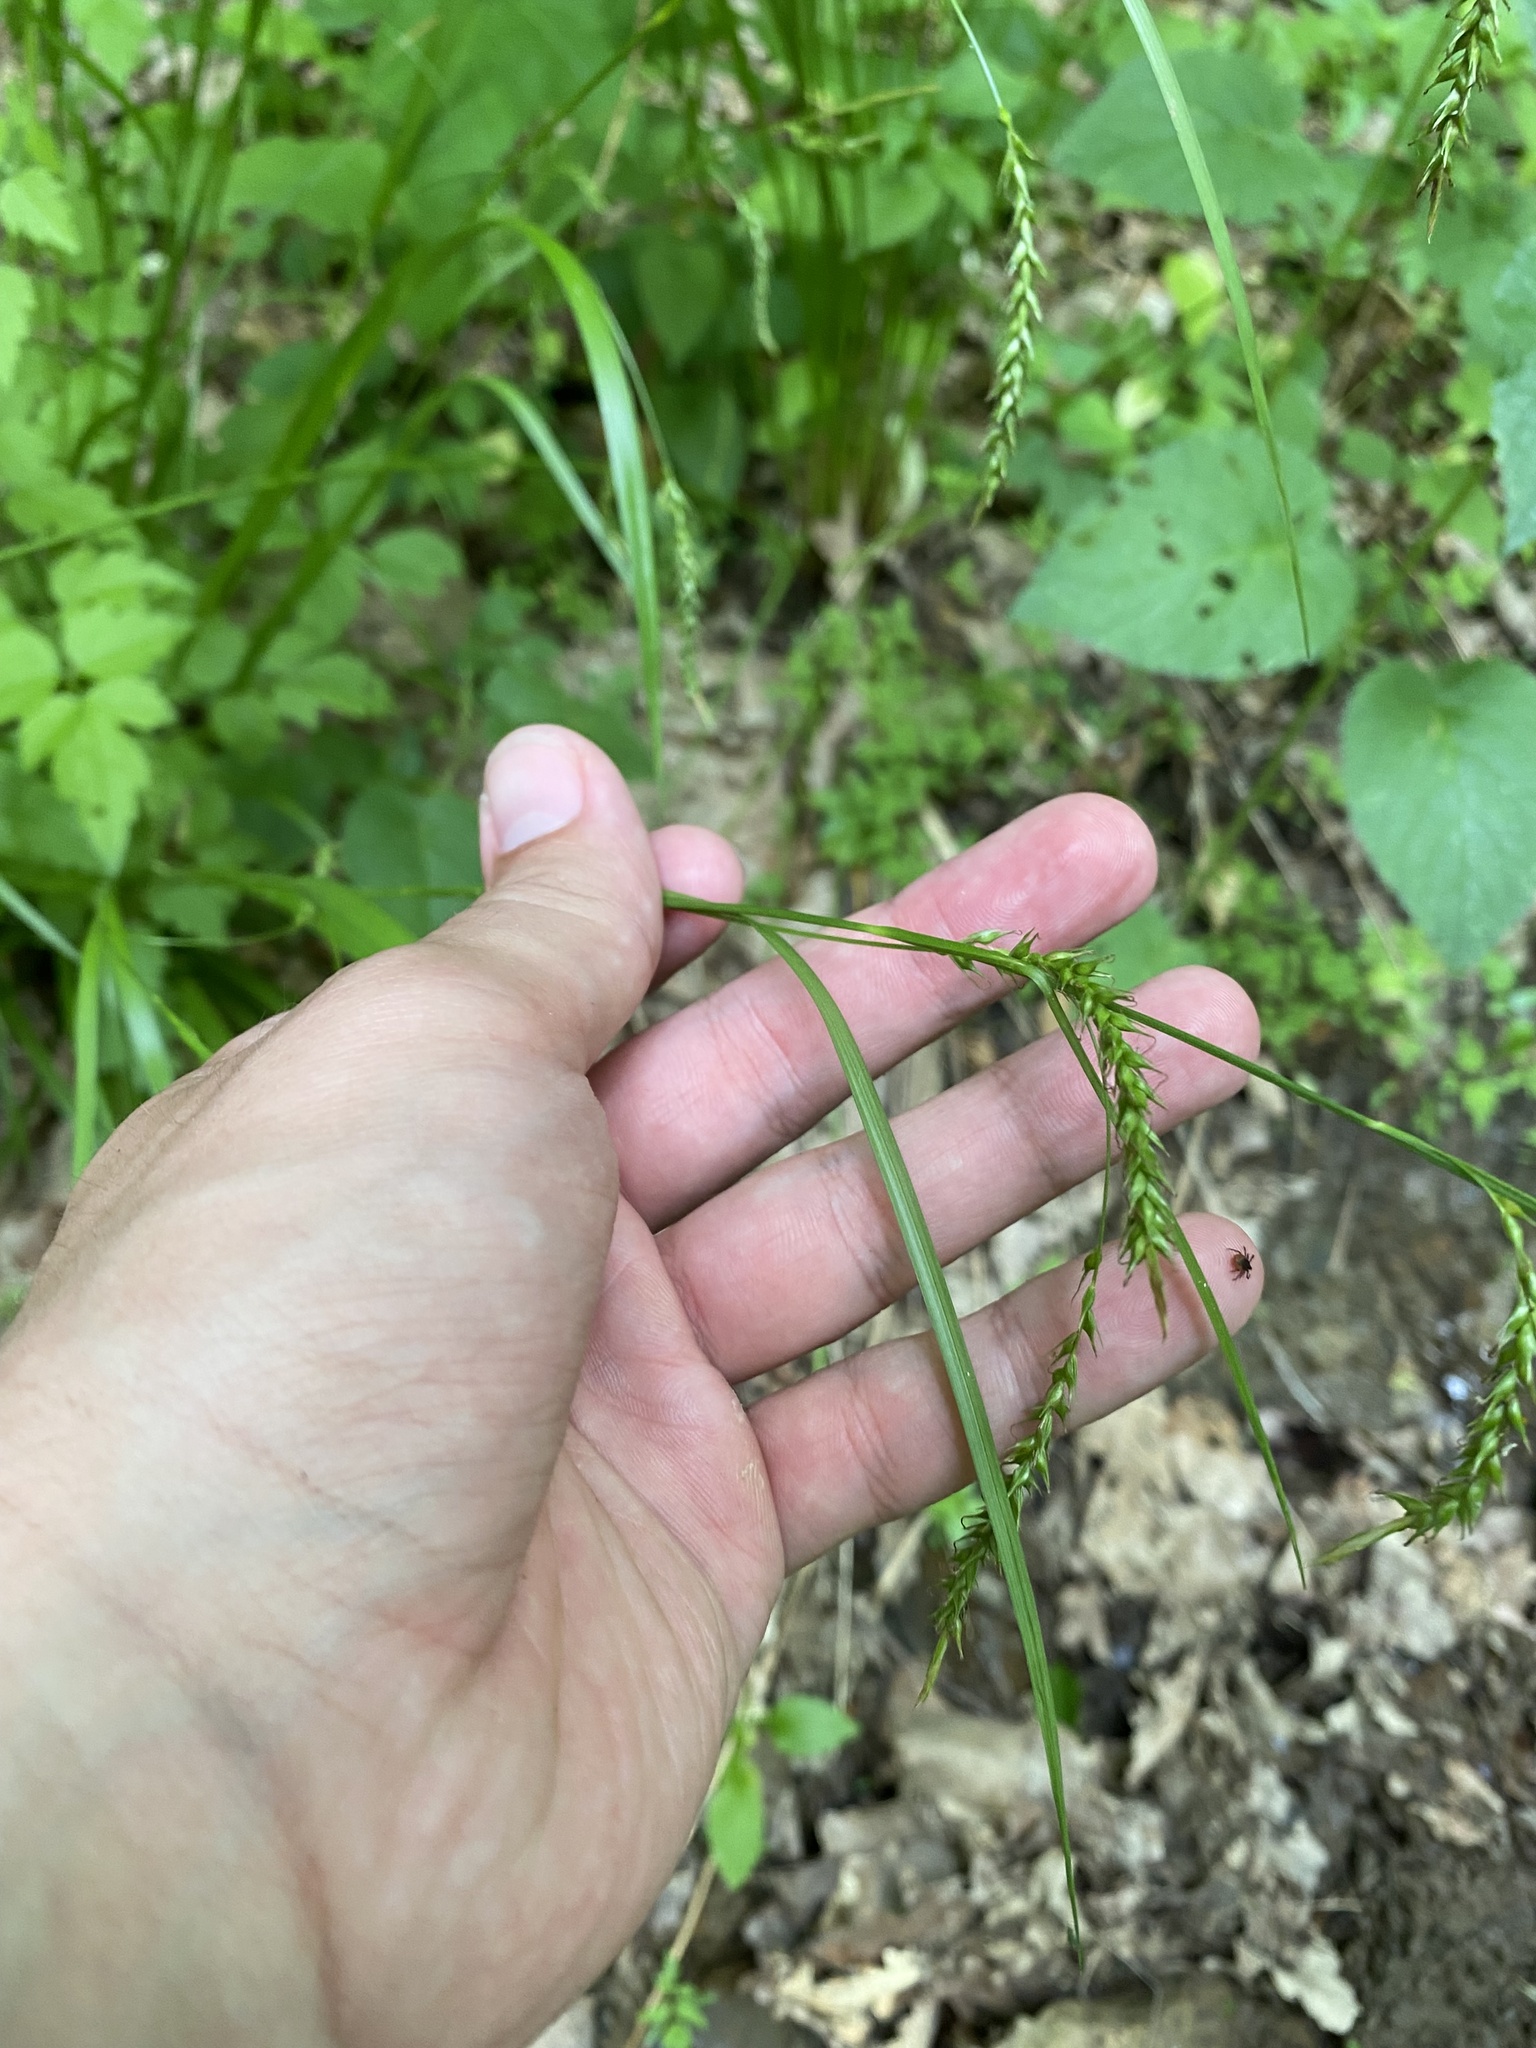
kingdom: Plantae
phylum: Tracheophyta
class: Liliopsida
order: Poales
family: Cyperaceae
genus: Carex
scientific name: Carex sylvatica
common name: Wood-sedge
